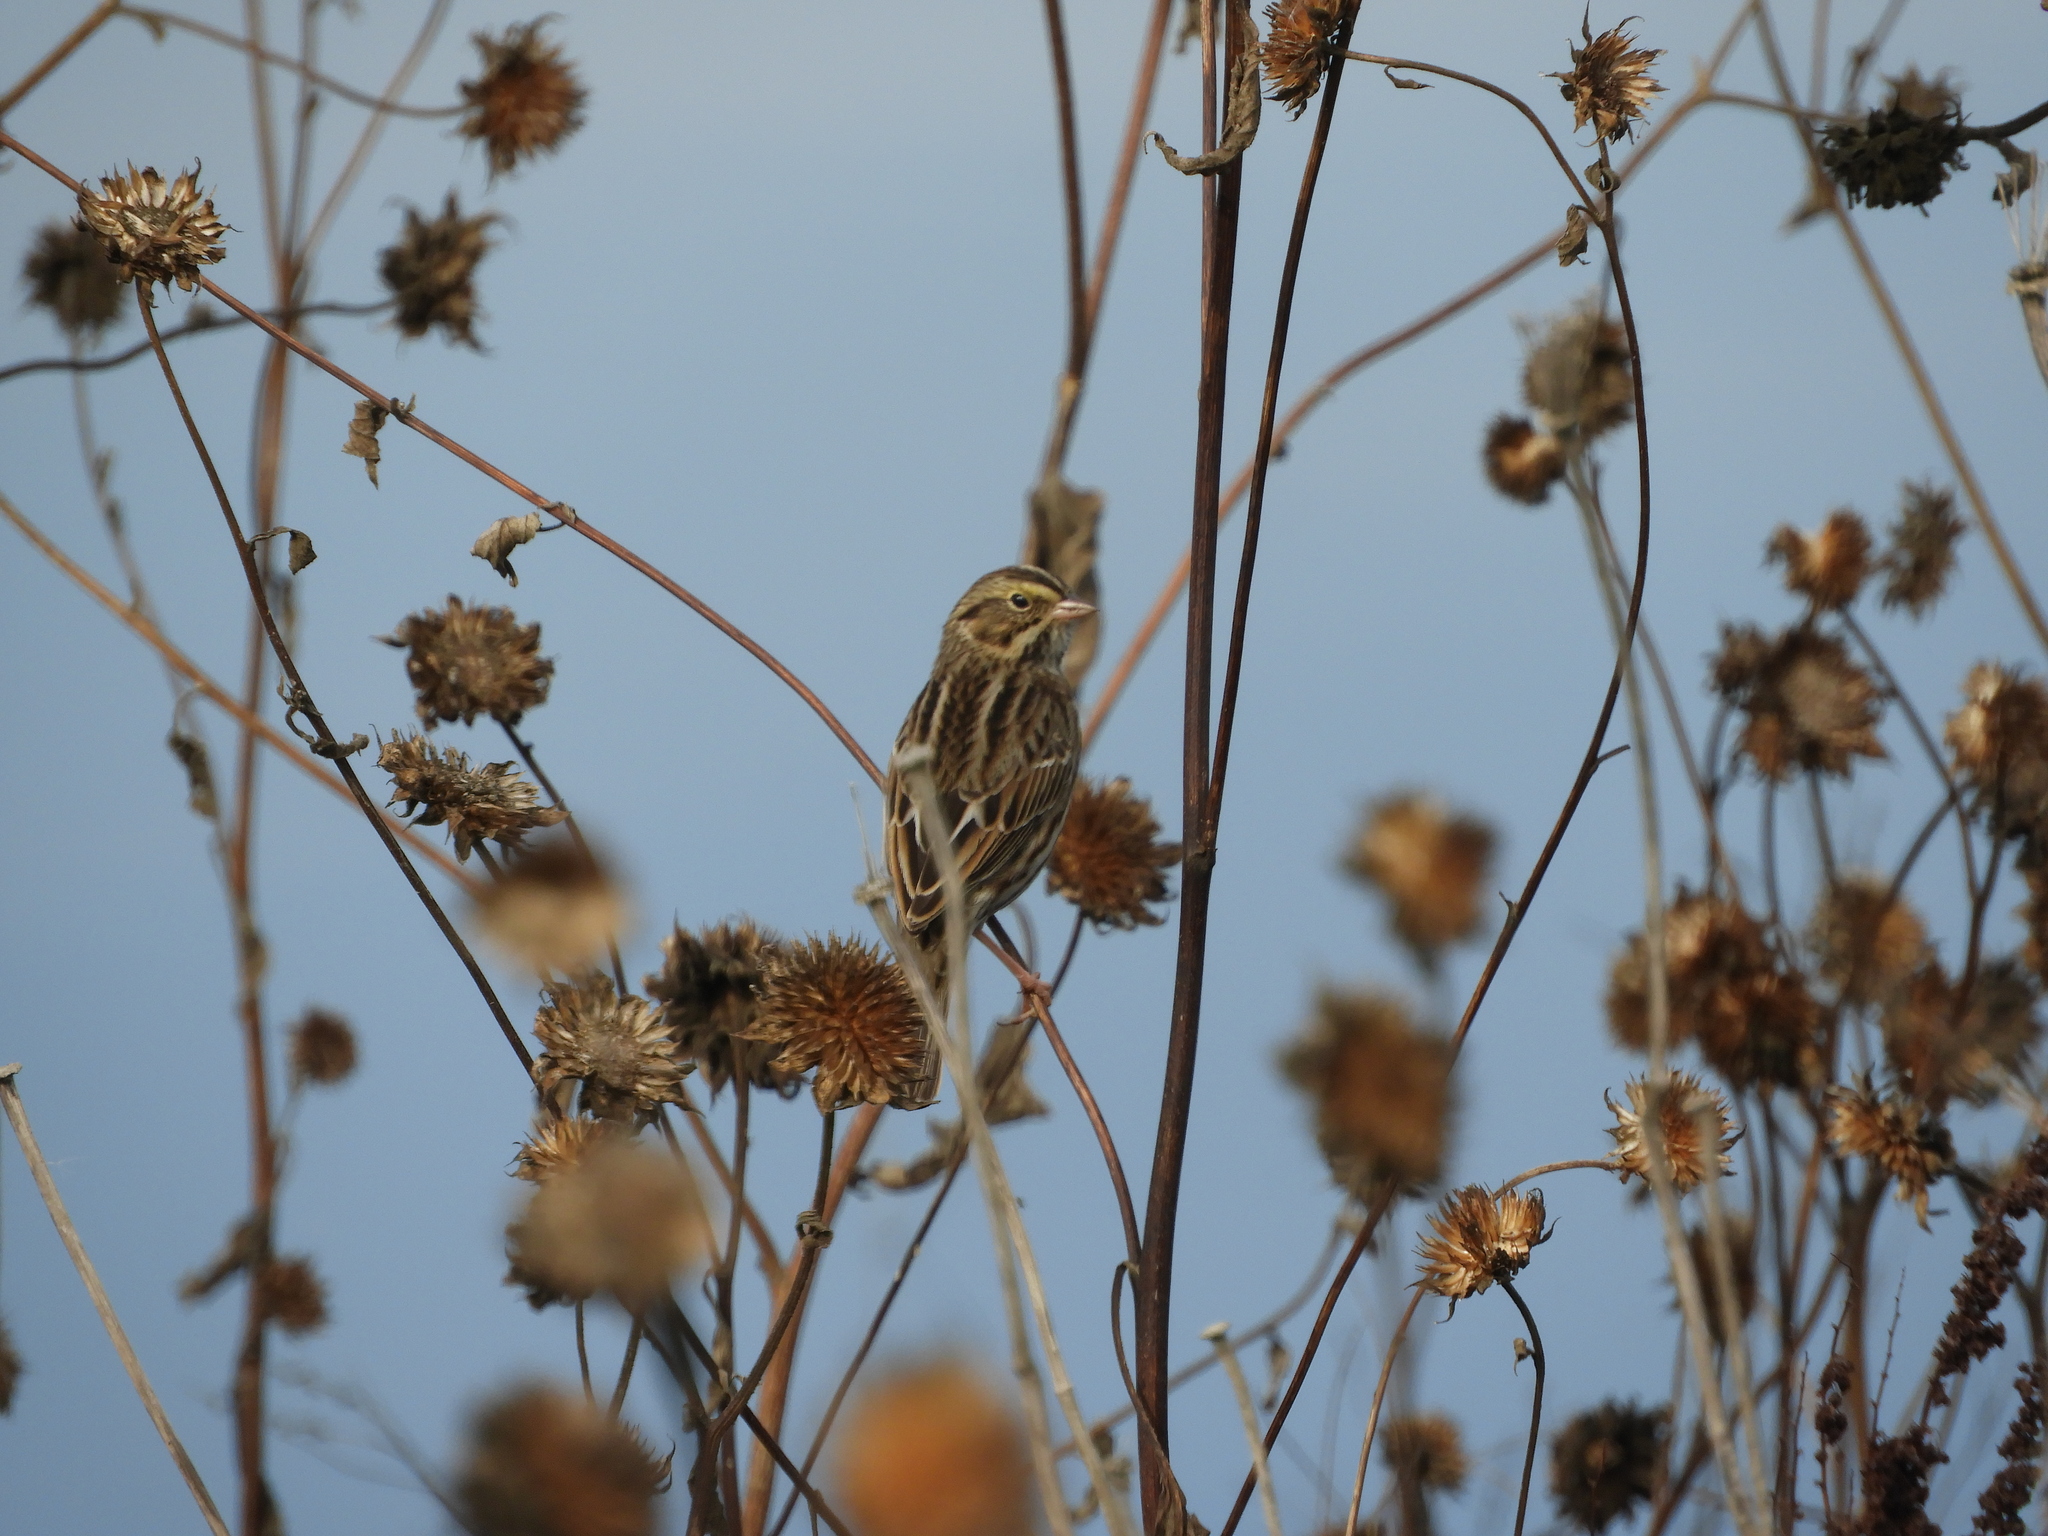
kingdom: Animalia
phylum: Chordata
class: Aves
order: Passeriformes
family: Passerellidae
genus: Passerculus
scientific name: Passerculus sandwichensis
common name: Savannah sparrow
